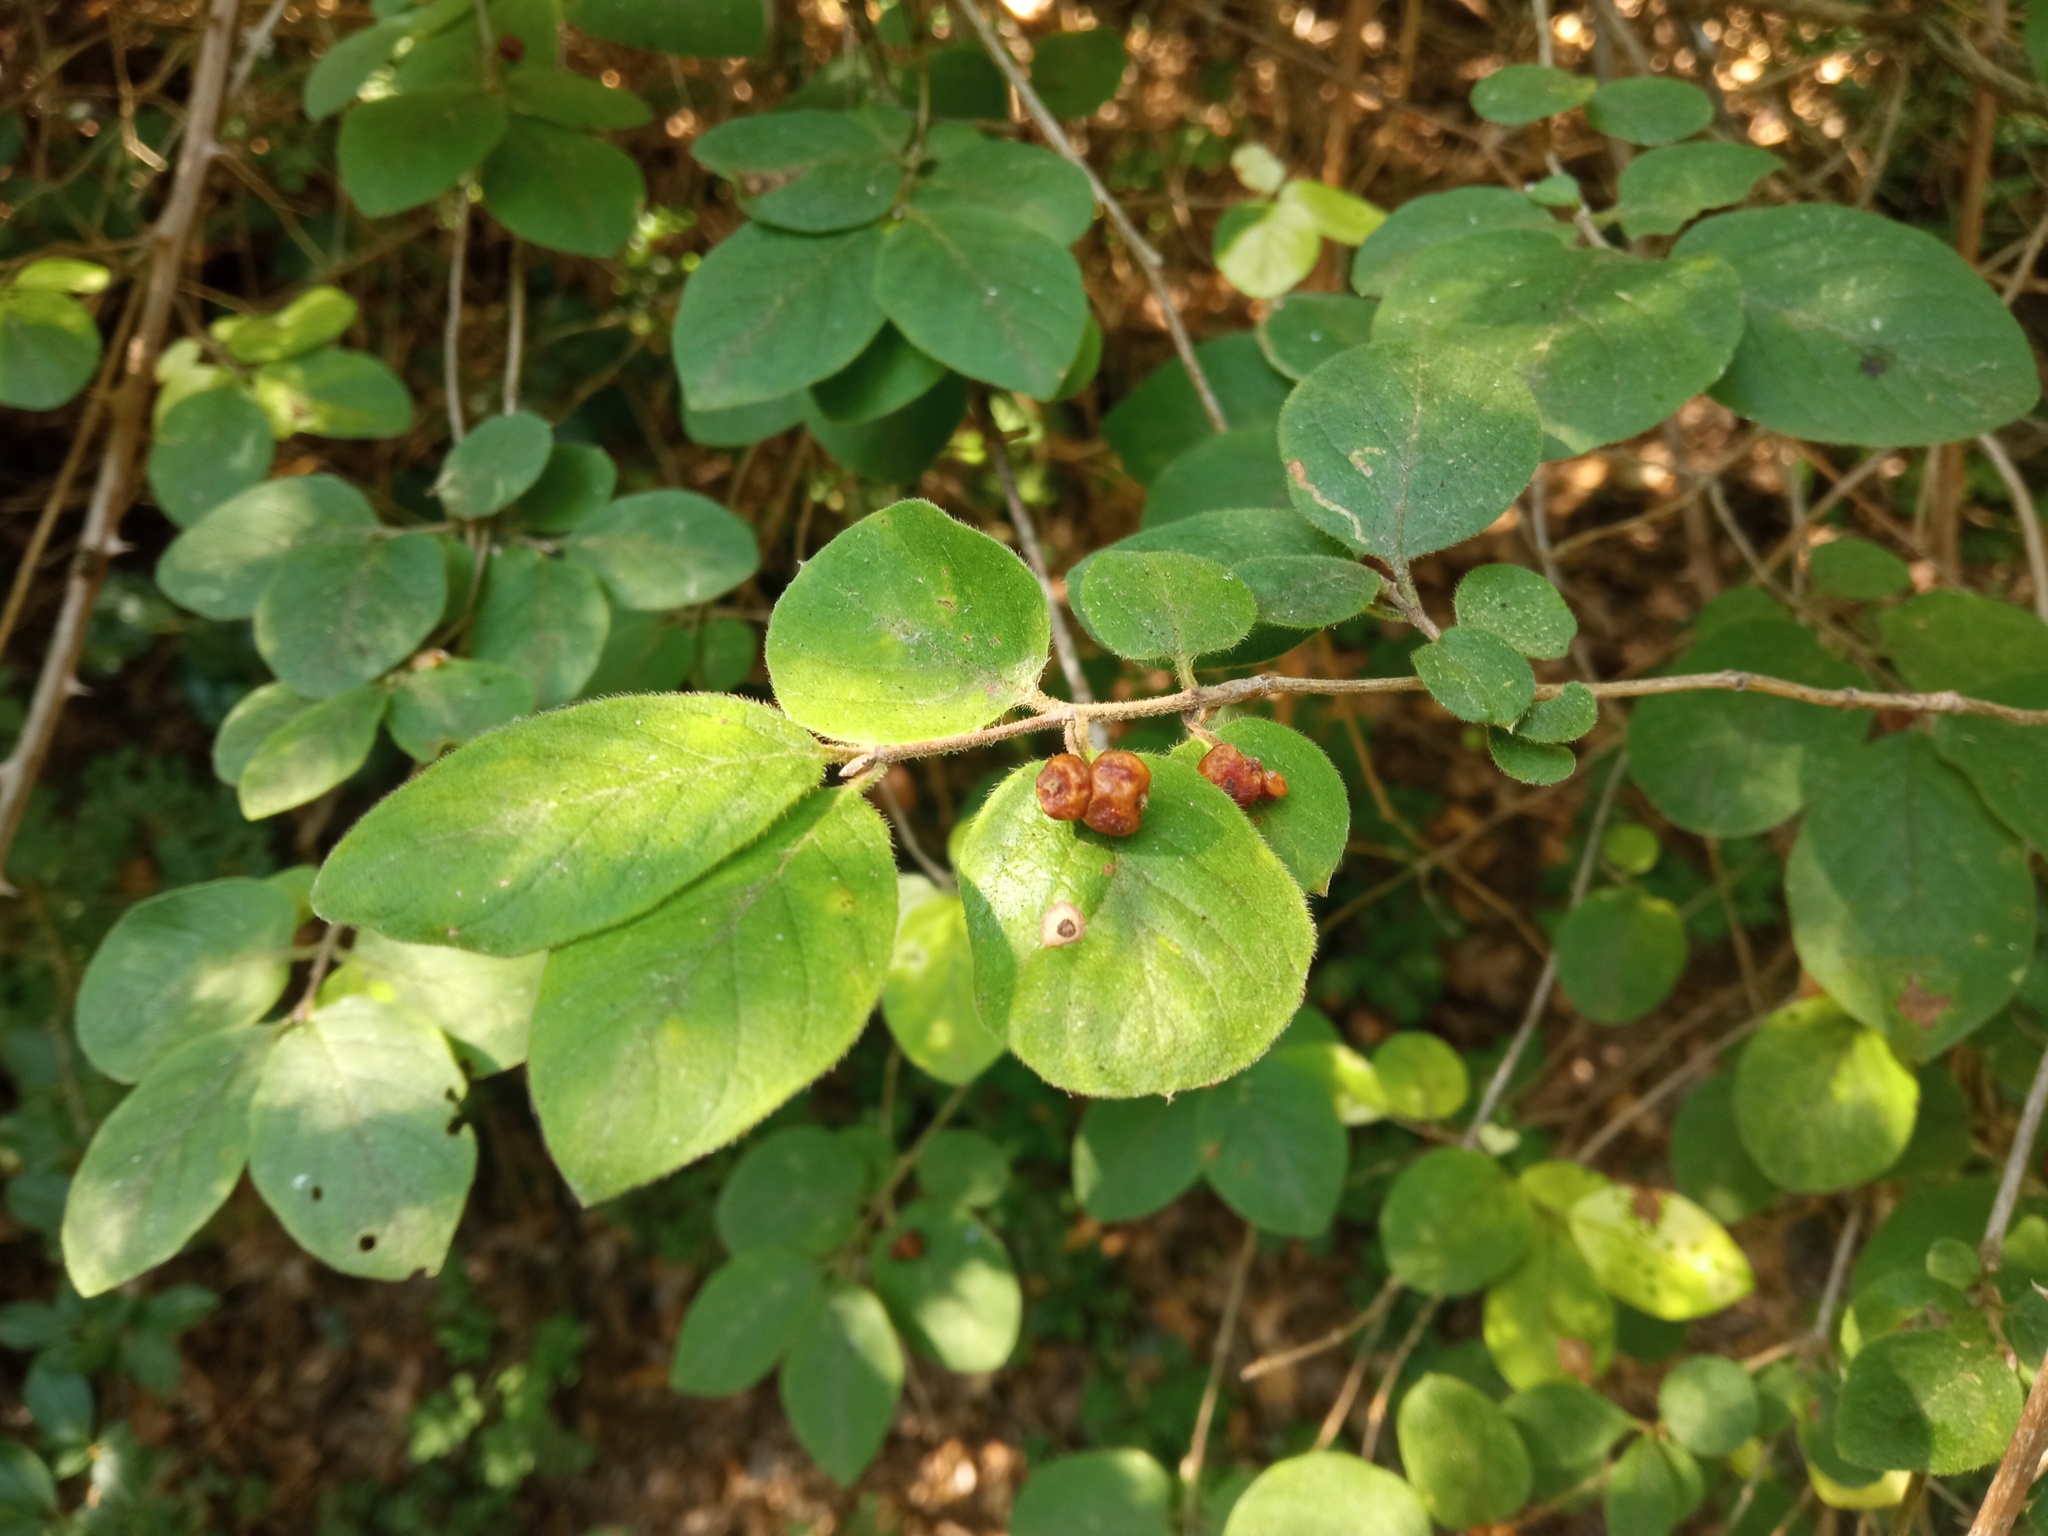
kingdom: Plantae
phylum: Tracheophyta
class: Magnoliopsida
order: Dipsacales
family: Caprifoliaceae
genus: Lonicera
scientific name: Lonicera xylosteum
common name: Fly honeysuckle
